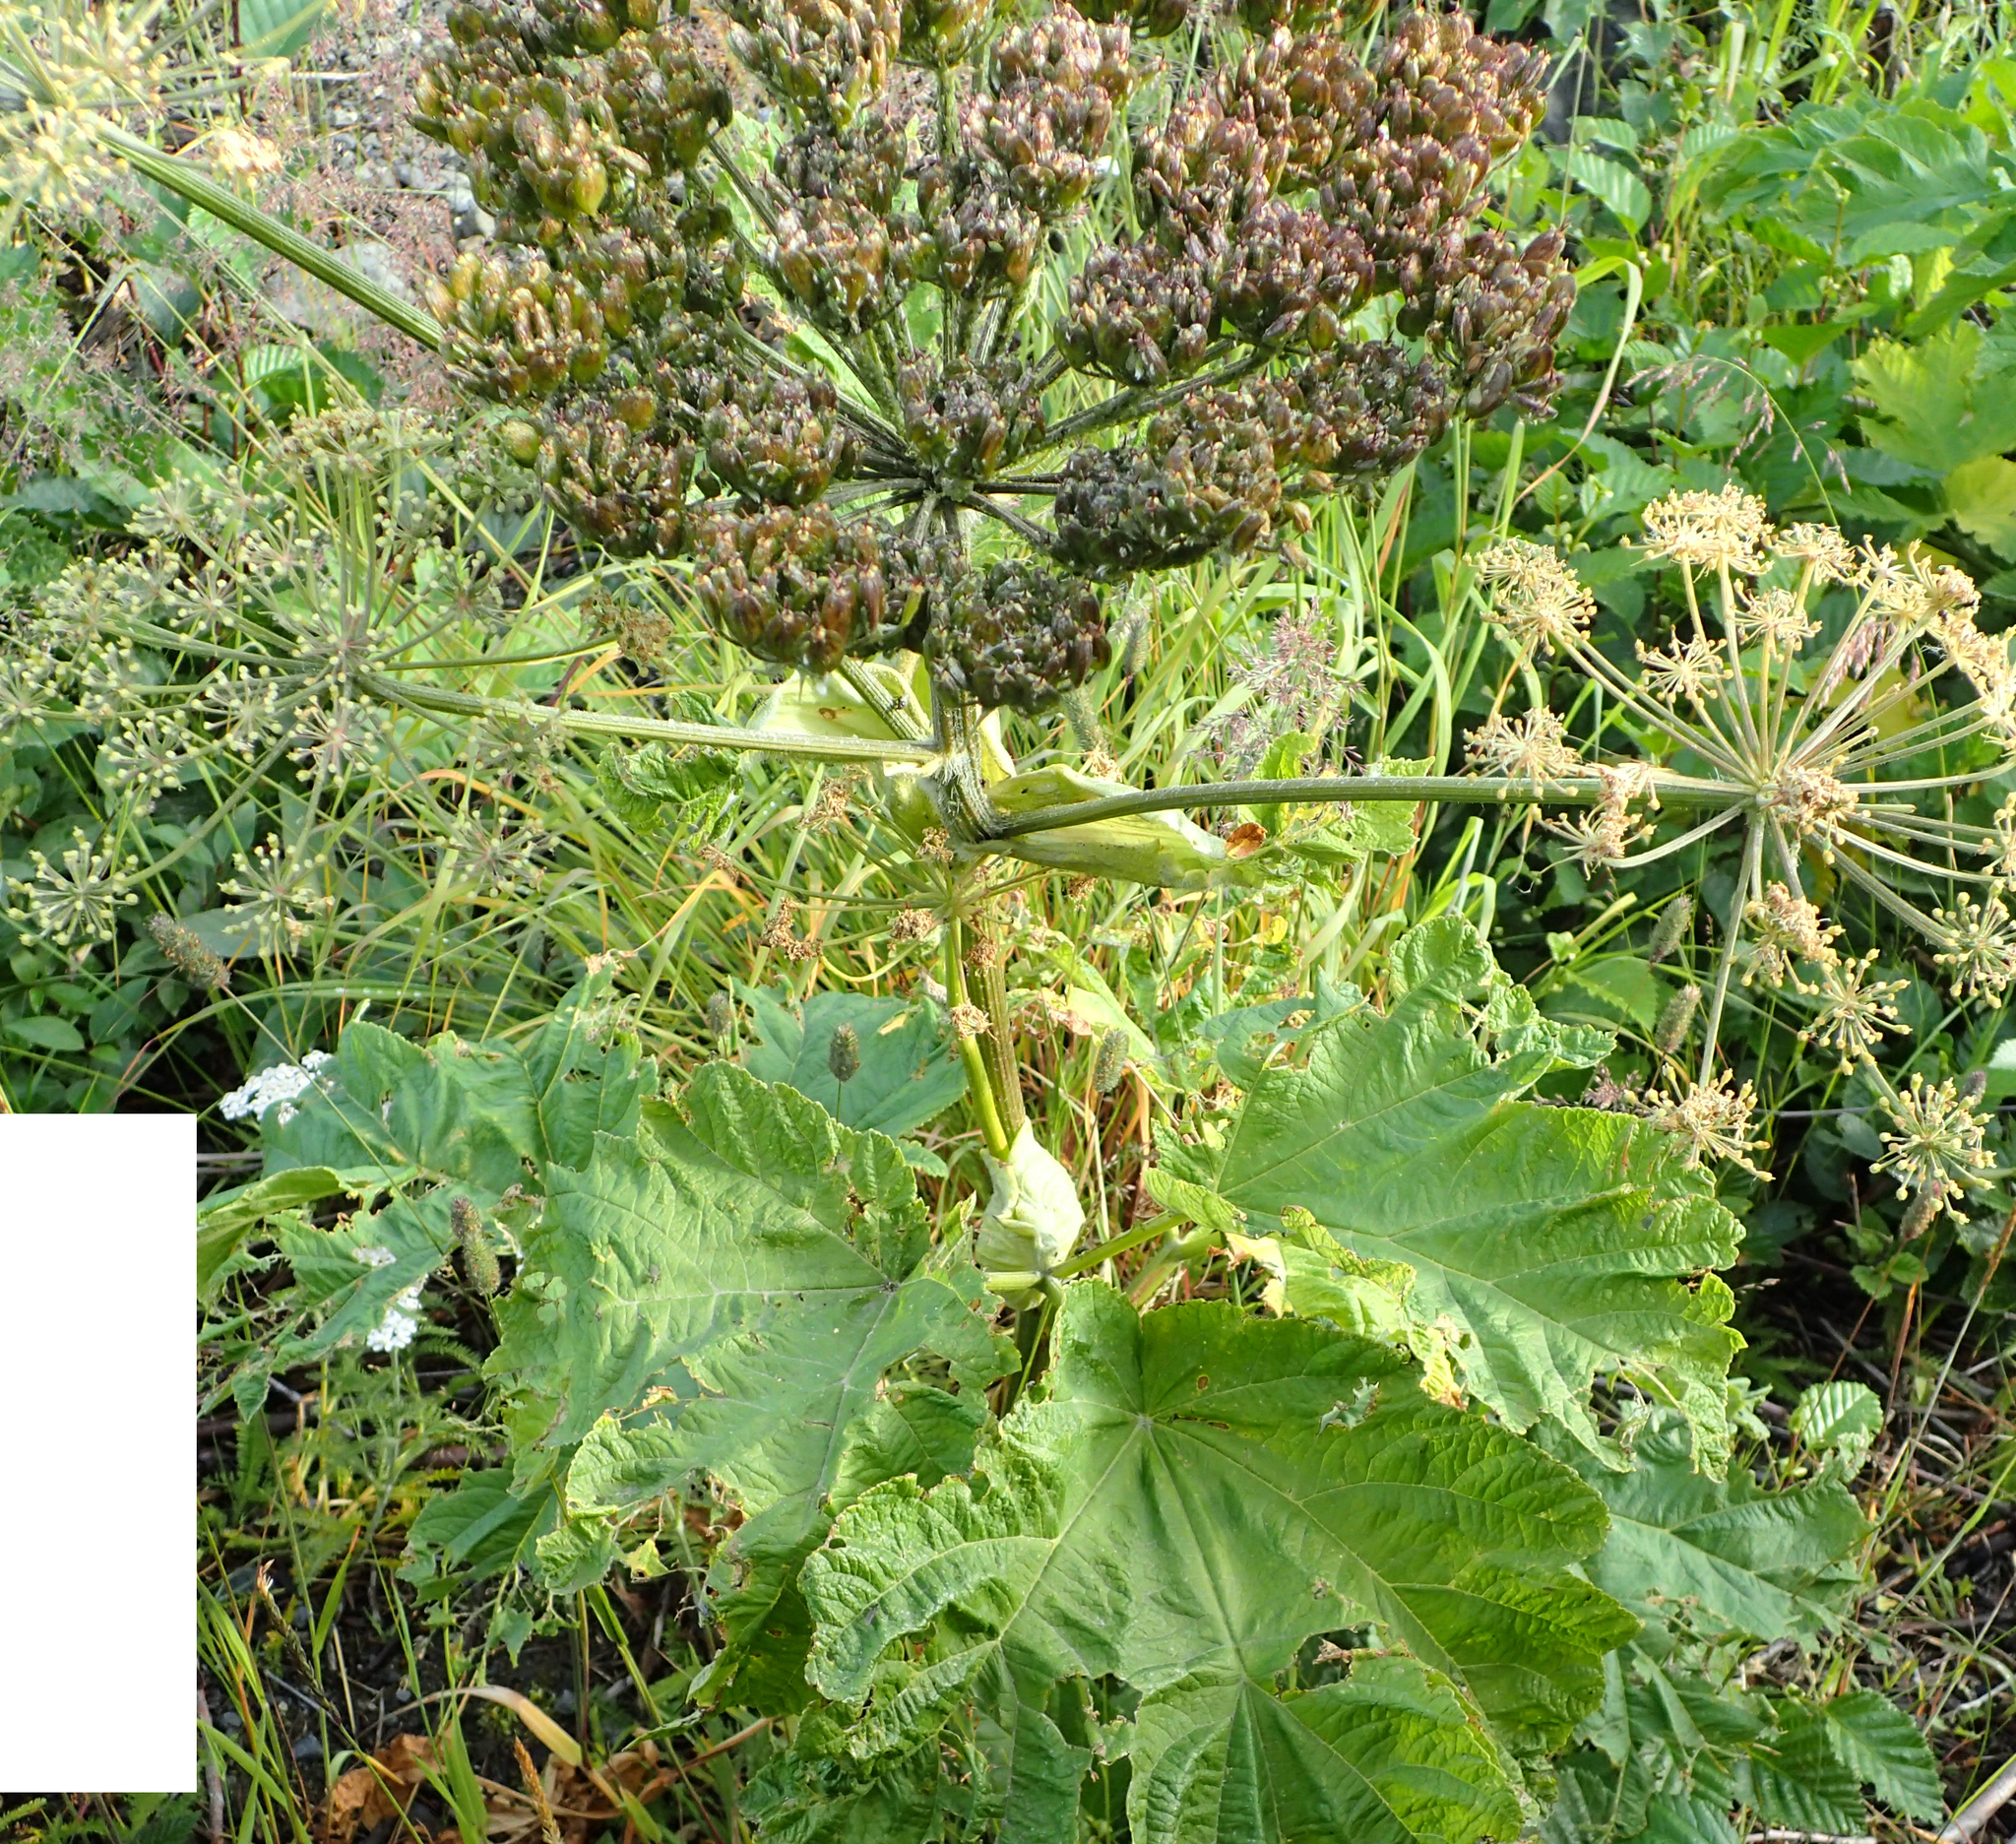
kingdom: Plantae
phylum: Tracheophyta
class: Magnoliopsida
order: Apiales
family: Apiaceae
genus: Heracleum
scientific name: Heracleum maximum
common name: American cow parsnip
